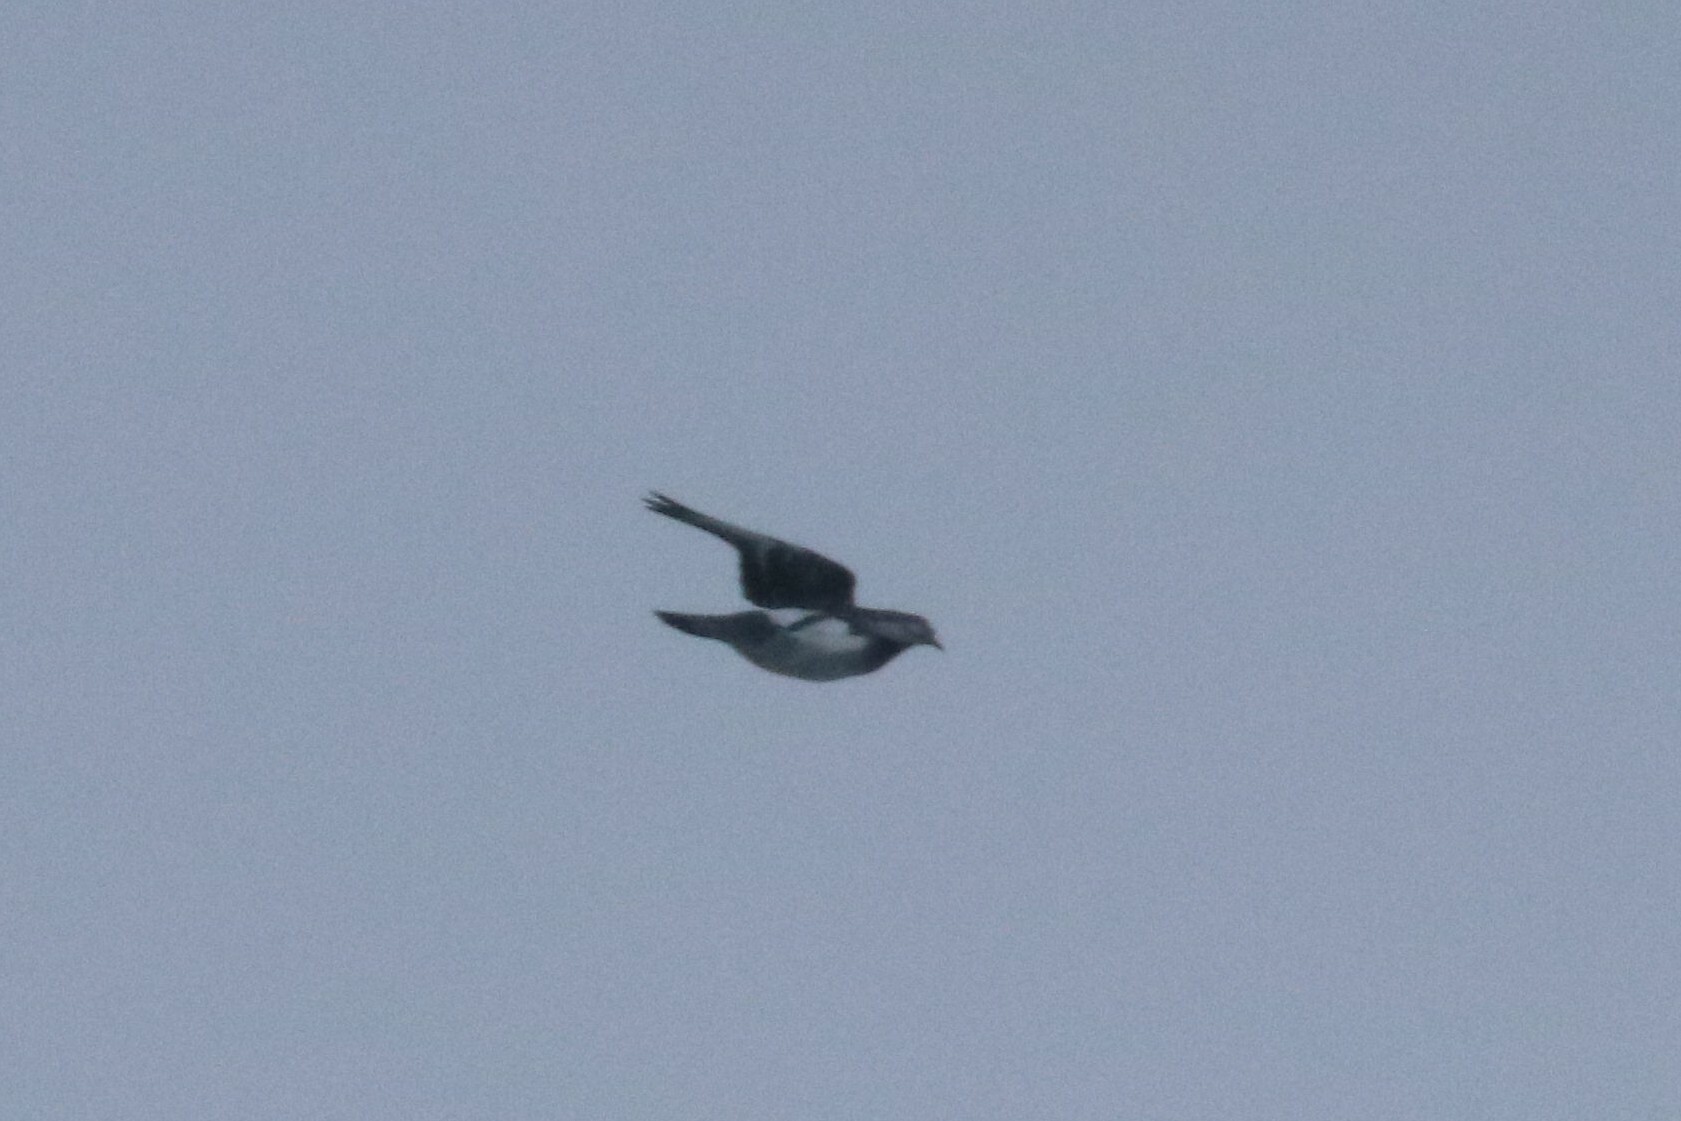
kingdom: Animalia
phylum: Chordata
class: Aves
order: Columbiformes
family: Columbidae
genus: Columba
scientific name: Columba livia
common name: Rock pigeon
